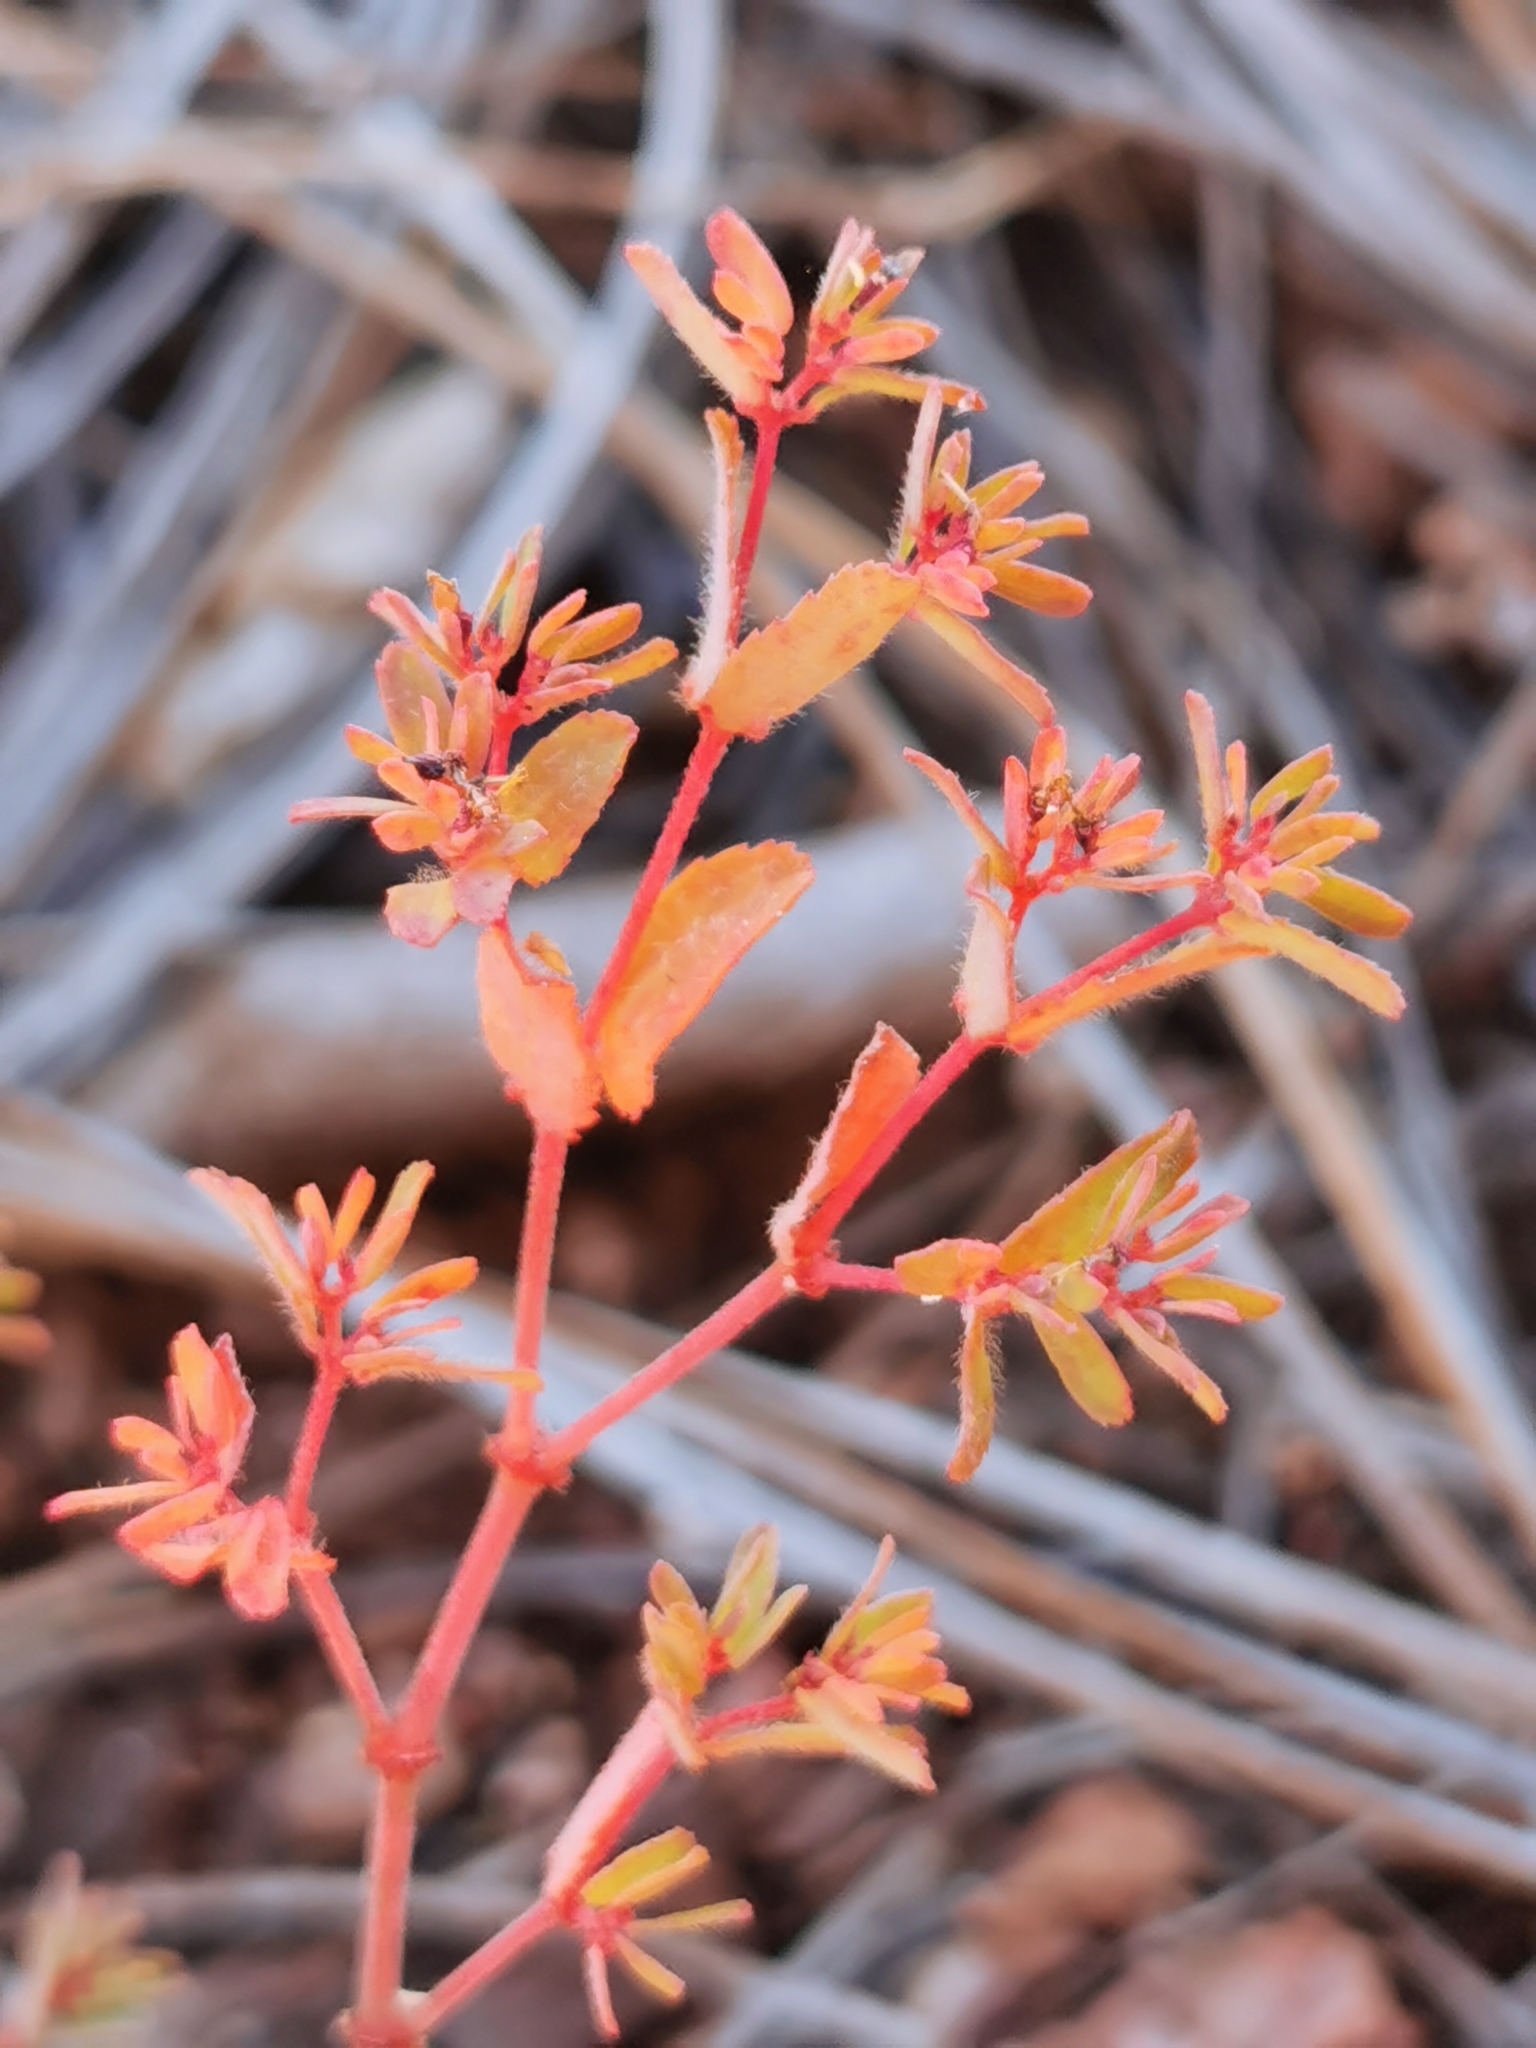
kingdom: Plantae
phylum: Tracheophyta
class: Magnoliopsida
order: Malpighiales
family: Euphorbiaceae
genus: Euphorbia
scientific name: Euphorbia anychioides
